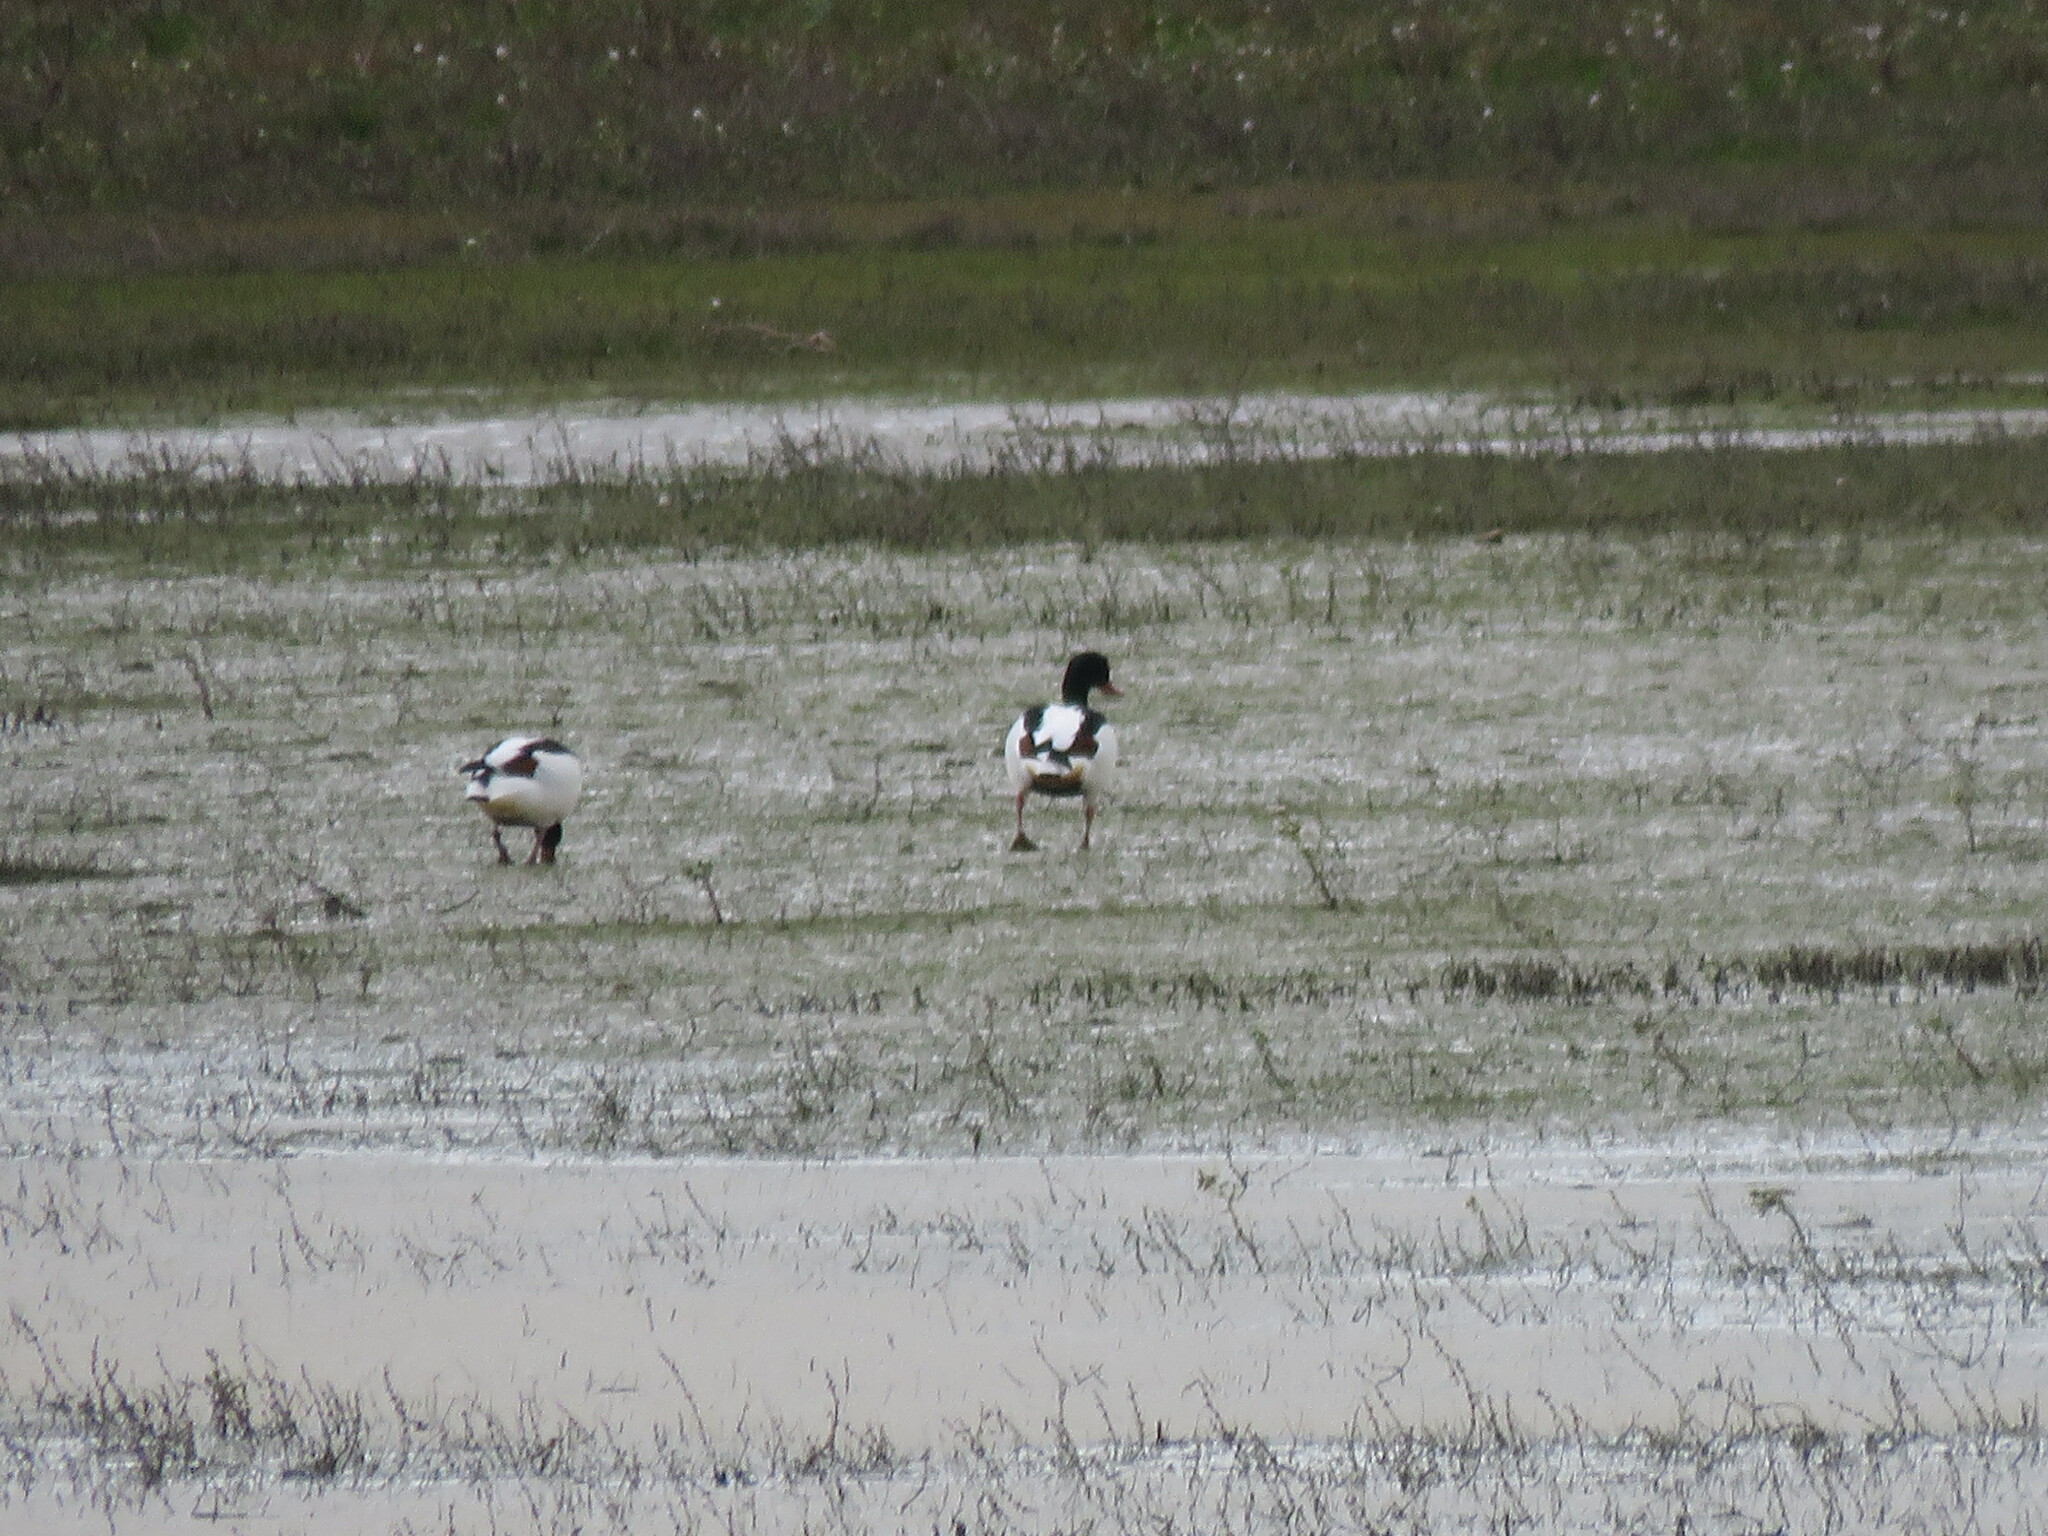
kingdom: Animalia
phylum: Chordata
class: Aves
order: Anseriformes
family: Anatidae
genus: Tadorna
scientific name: Tadorna tadorna
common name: Common shelduck
